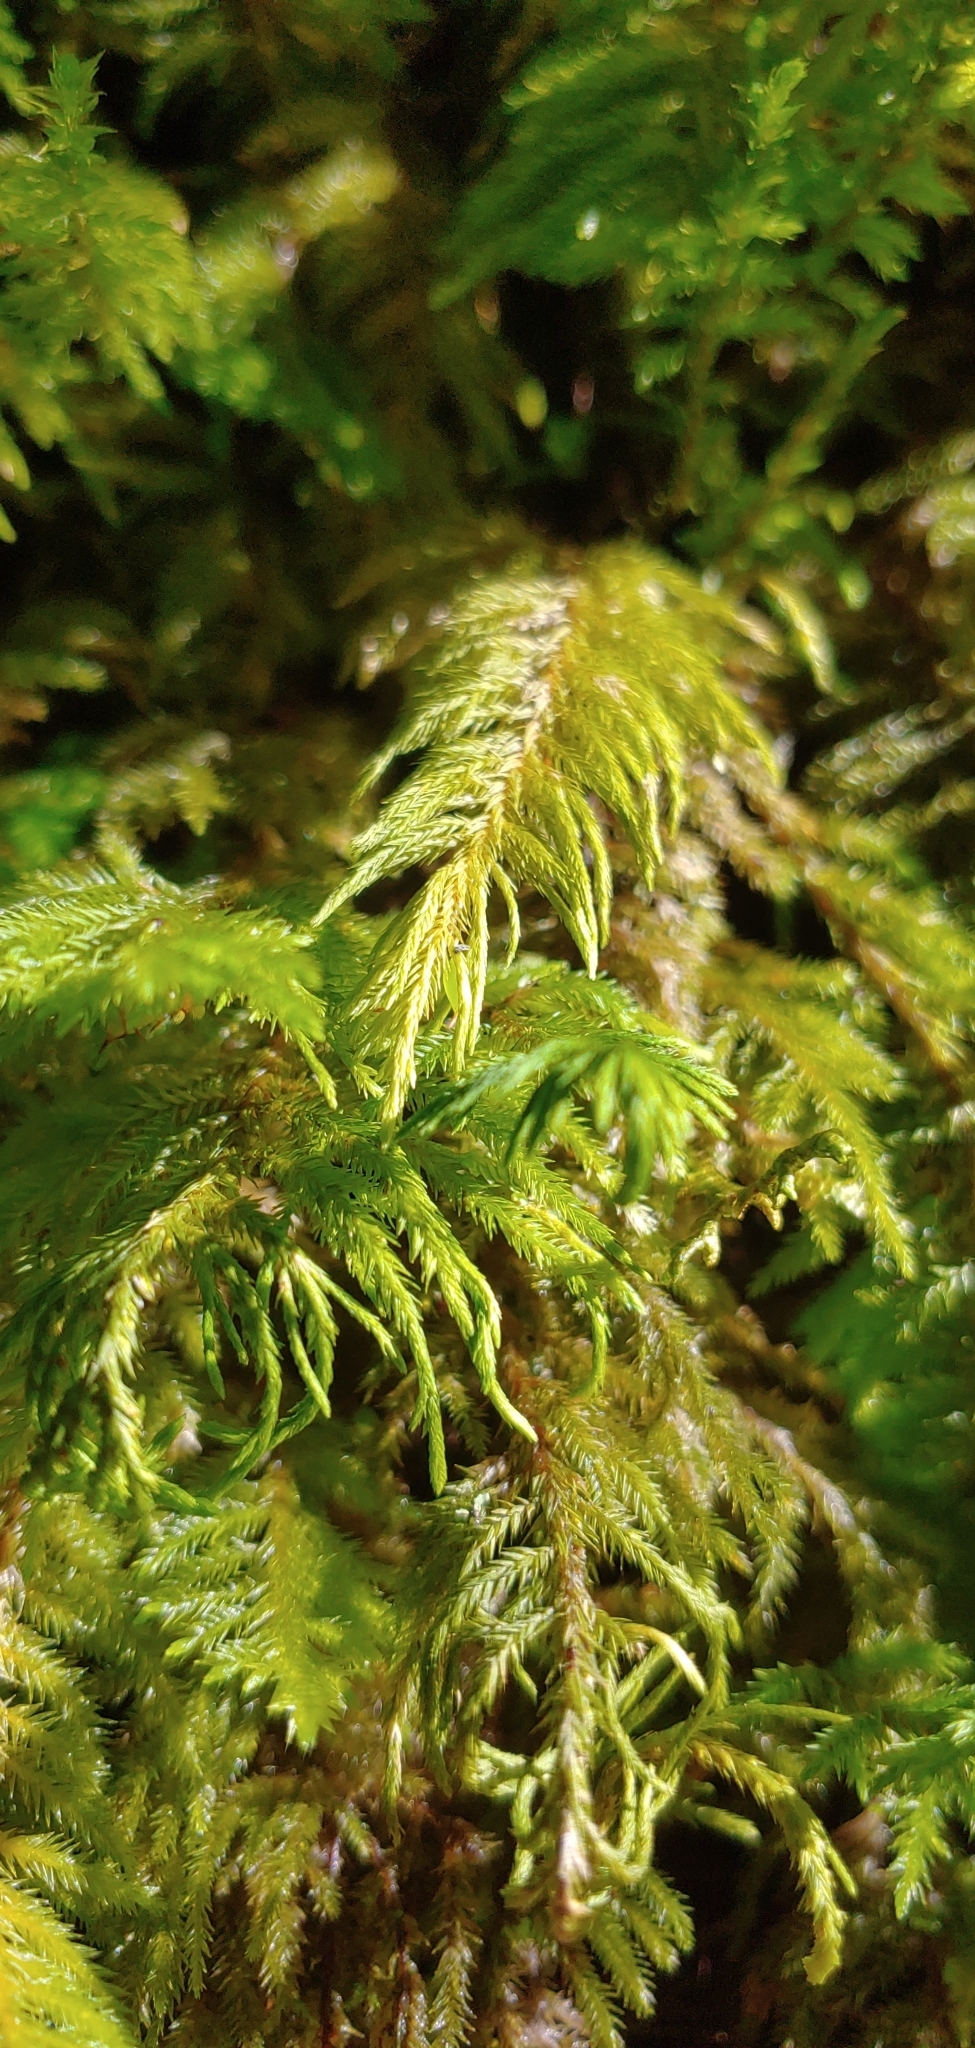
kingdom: Plantae
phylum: Bryophyta
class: Bryopsida
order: Hypnales
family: Cryphaeaceae
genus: Dendroalsia
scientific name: Dendroalsia abietina
